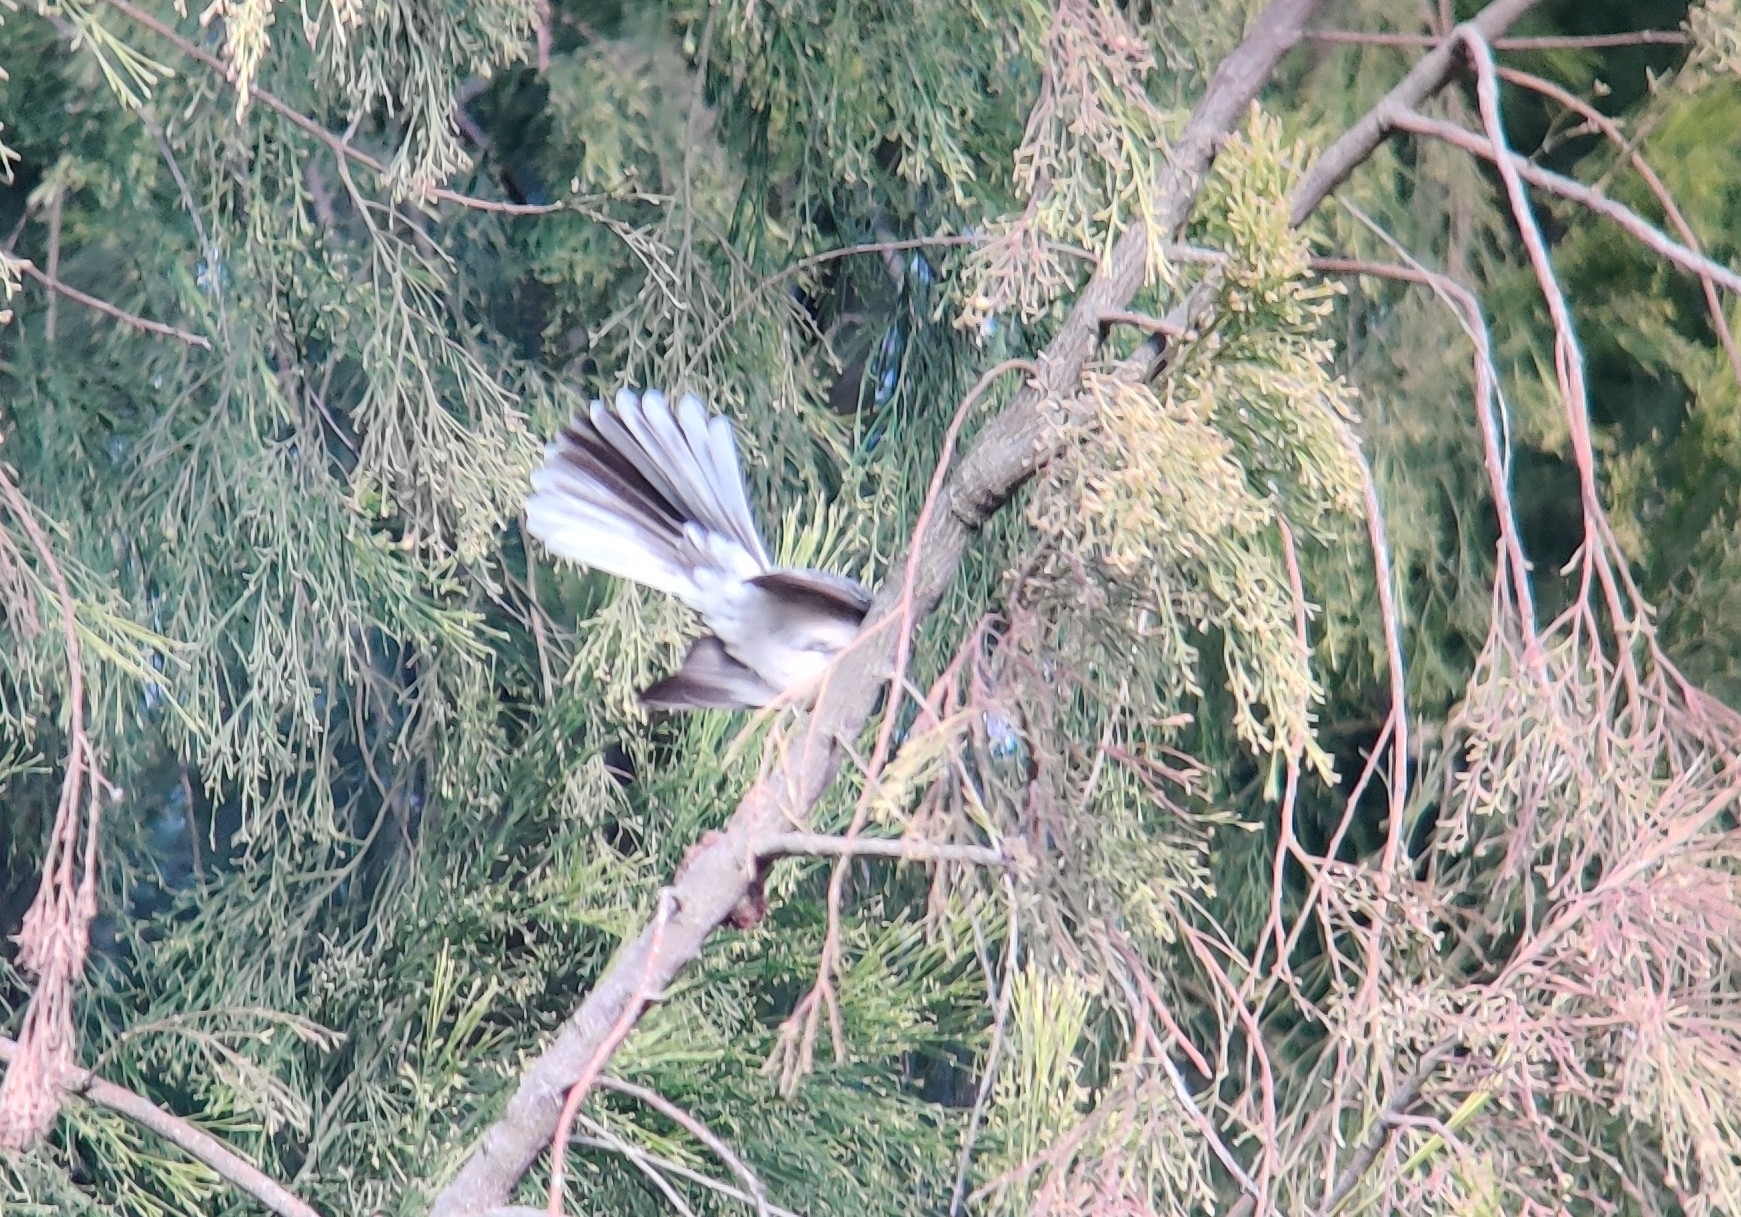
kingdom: Animalia
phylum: Chordata
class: Aves
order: Passeriformes
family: Rhipiduridae
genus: Rhipidura
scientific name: Rhipidura albiscapa
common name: Grey fantail
